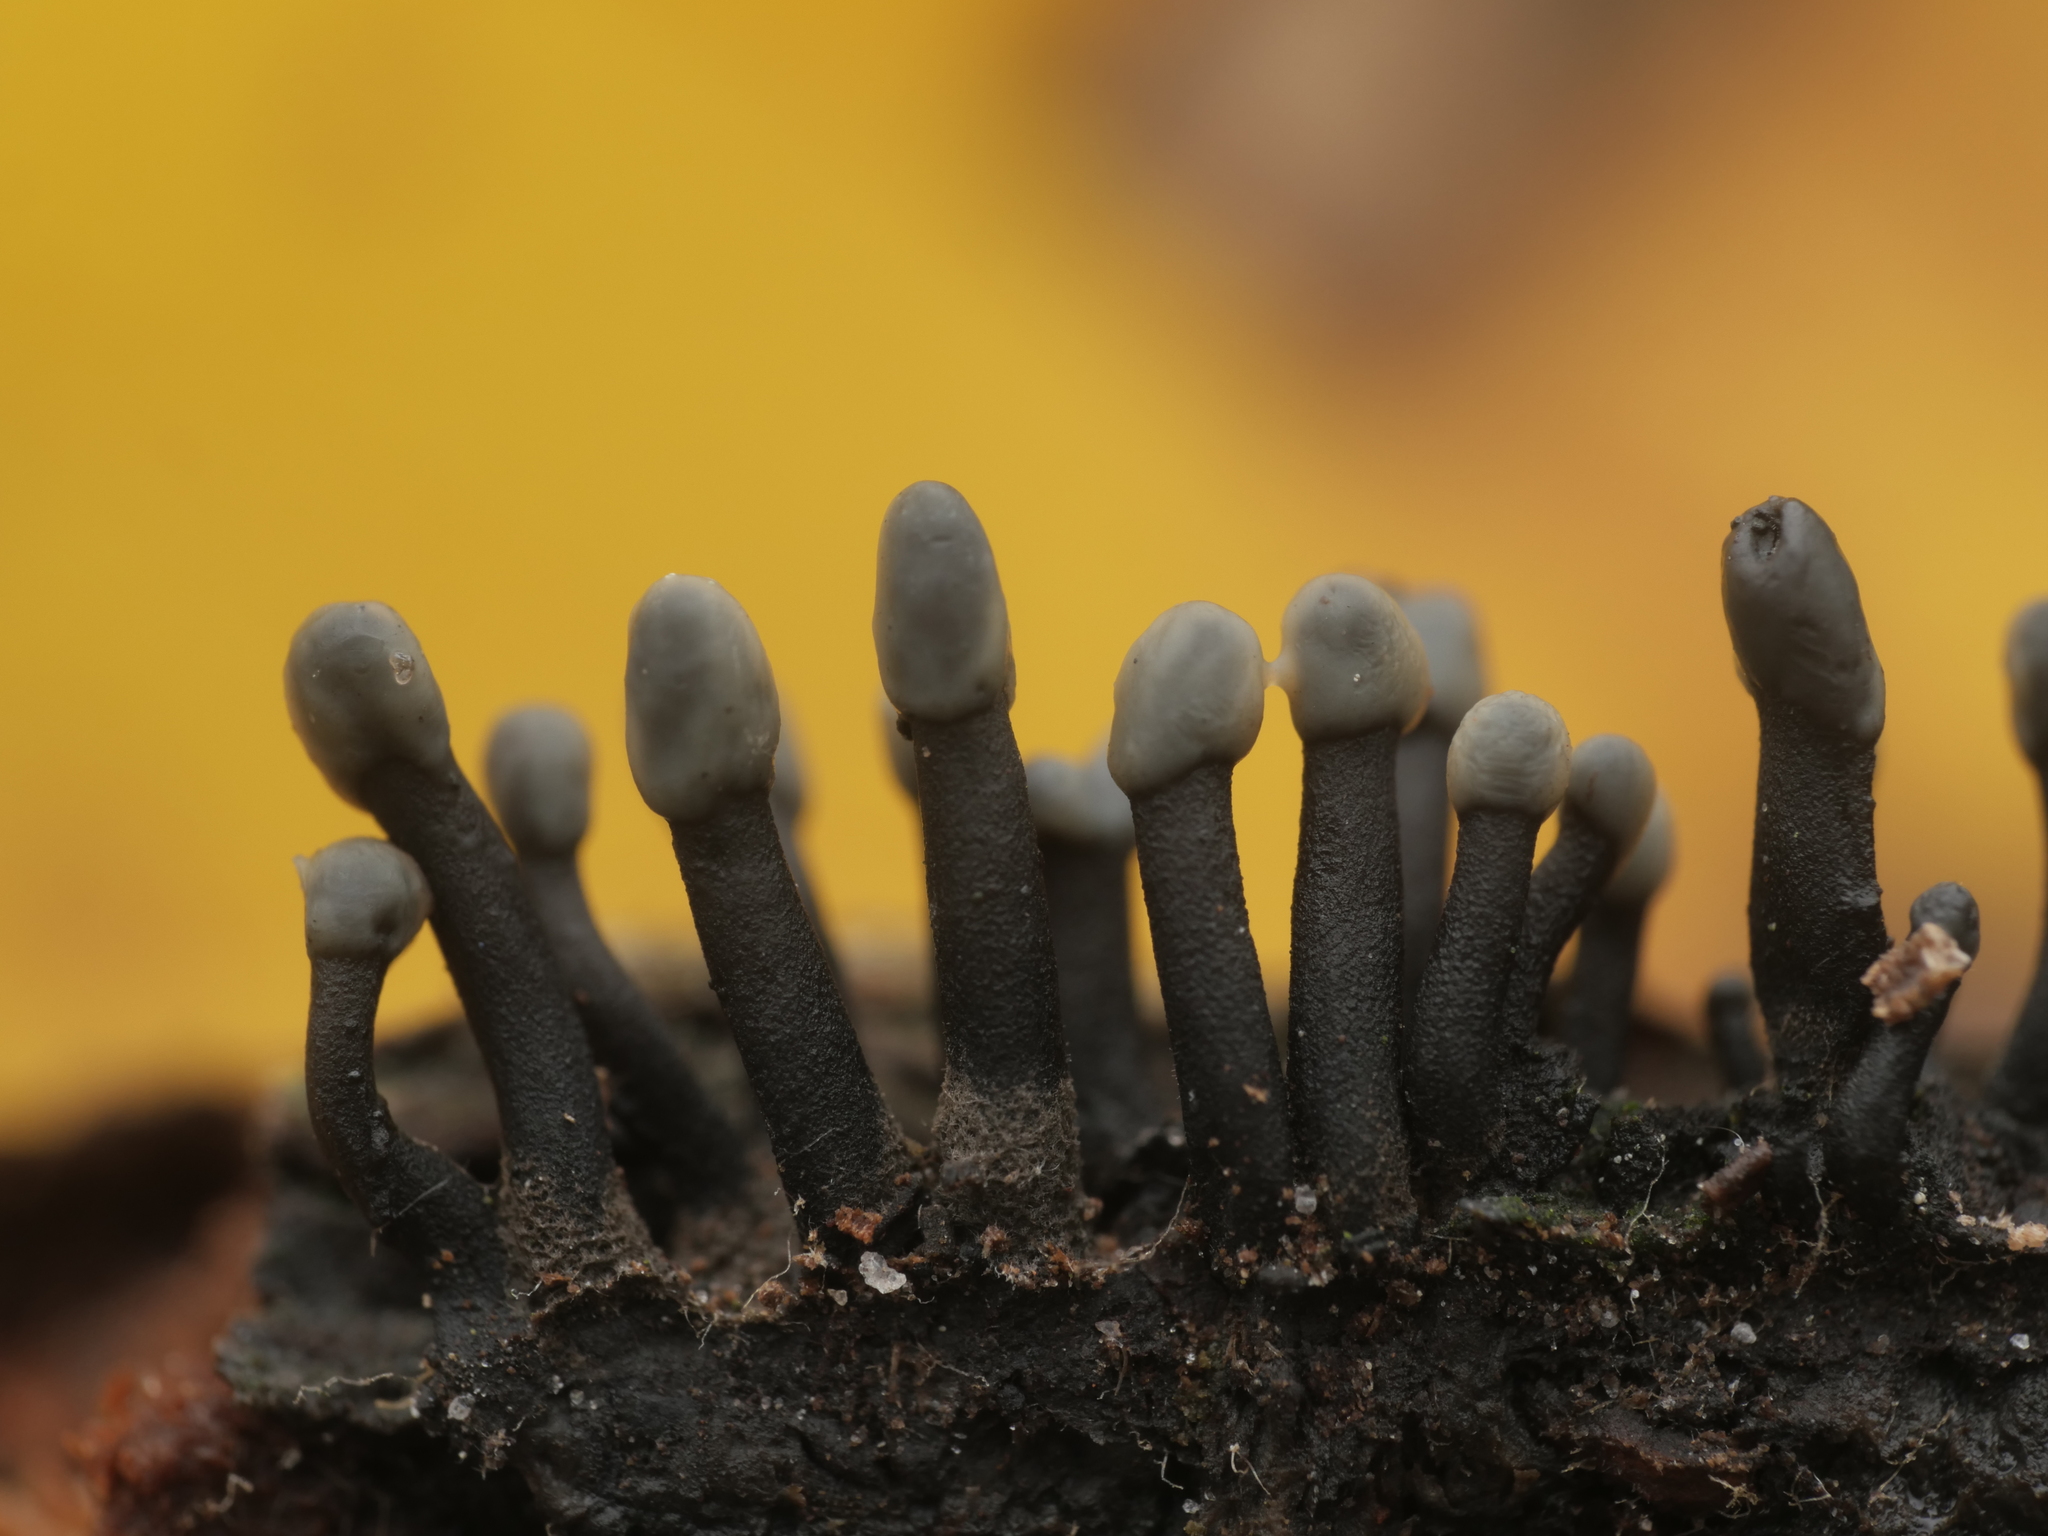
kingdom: Fungi
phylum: Ascomycota
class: Leotiomycetes
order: Helotiales
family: Bulgariaceae
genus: Holwaya
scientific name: Holwaya mucida
